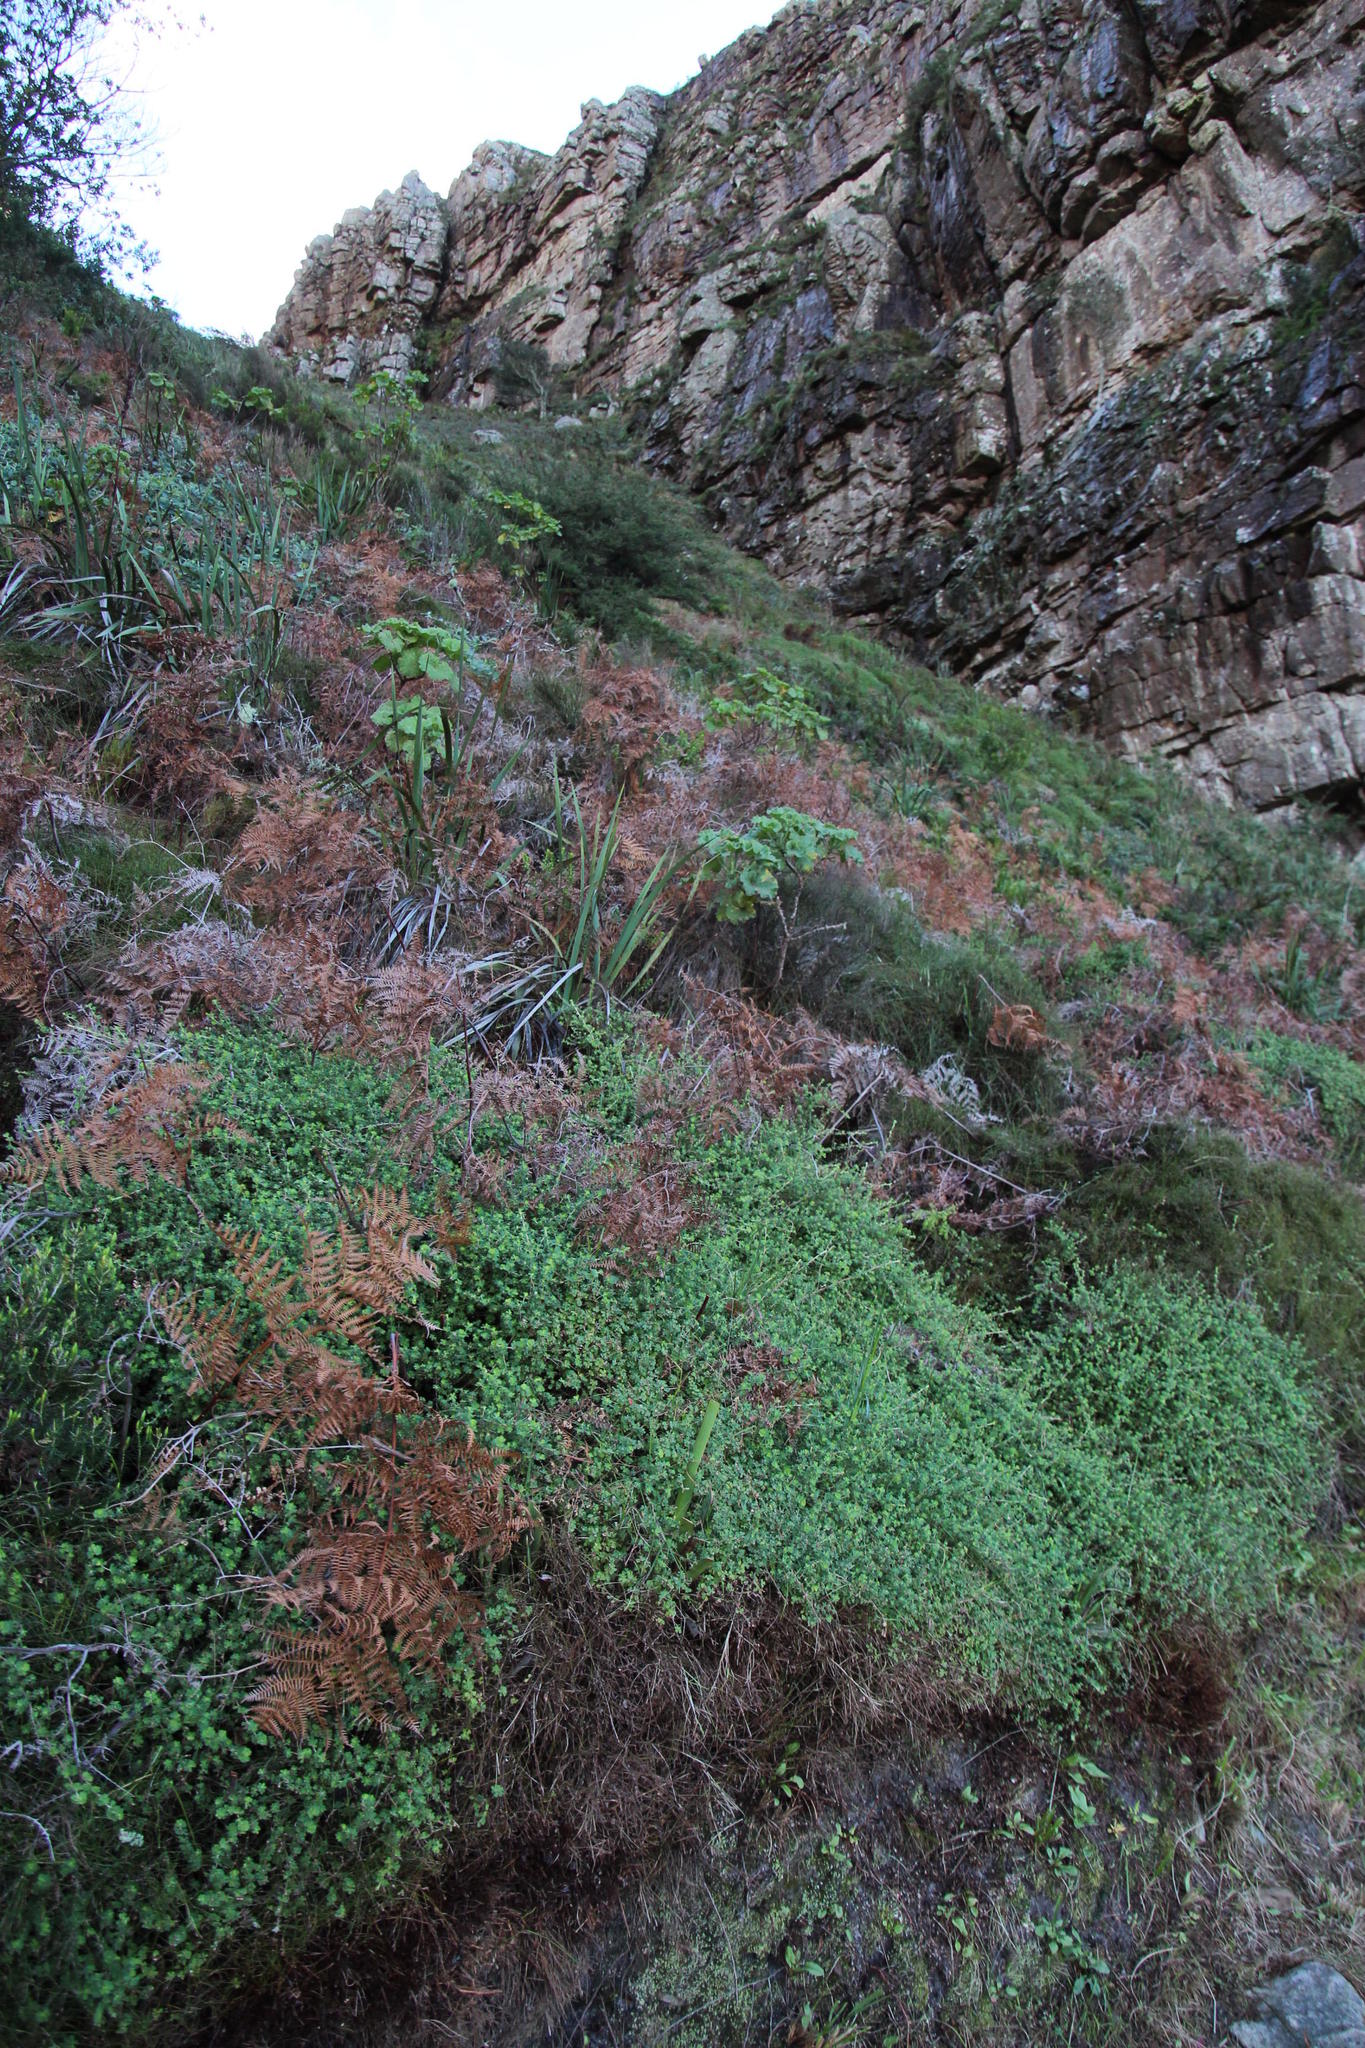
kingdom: Plantae
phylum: Tracheophyta
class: Magnoliopsida
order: Rosales
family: Rosaceae
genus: Cliffortia
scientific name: Cliffortia dentata
